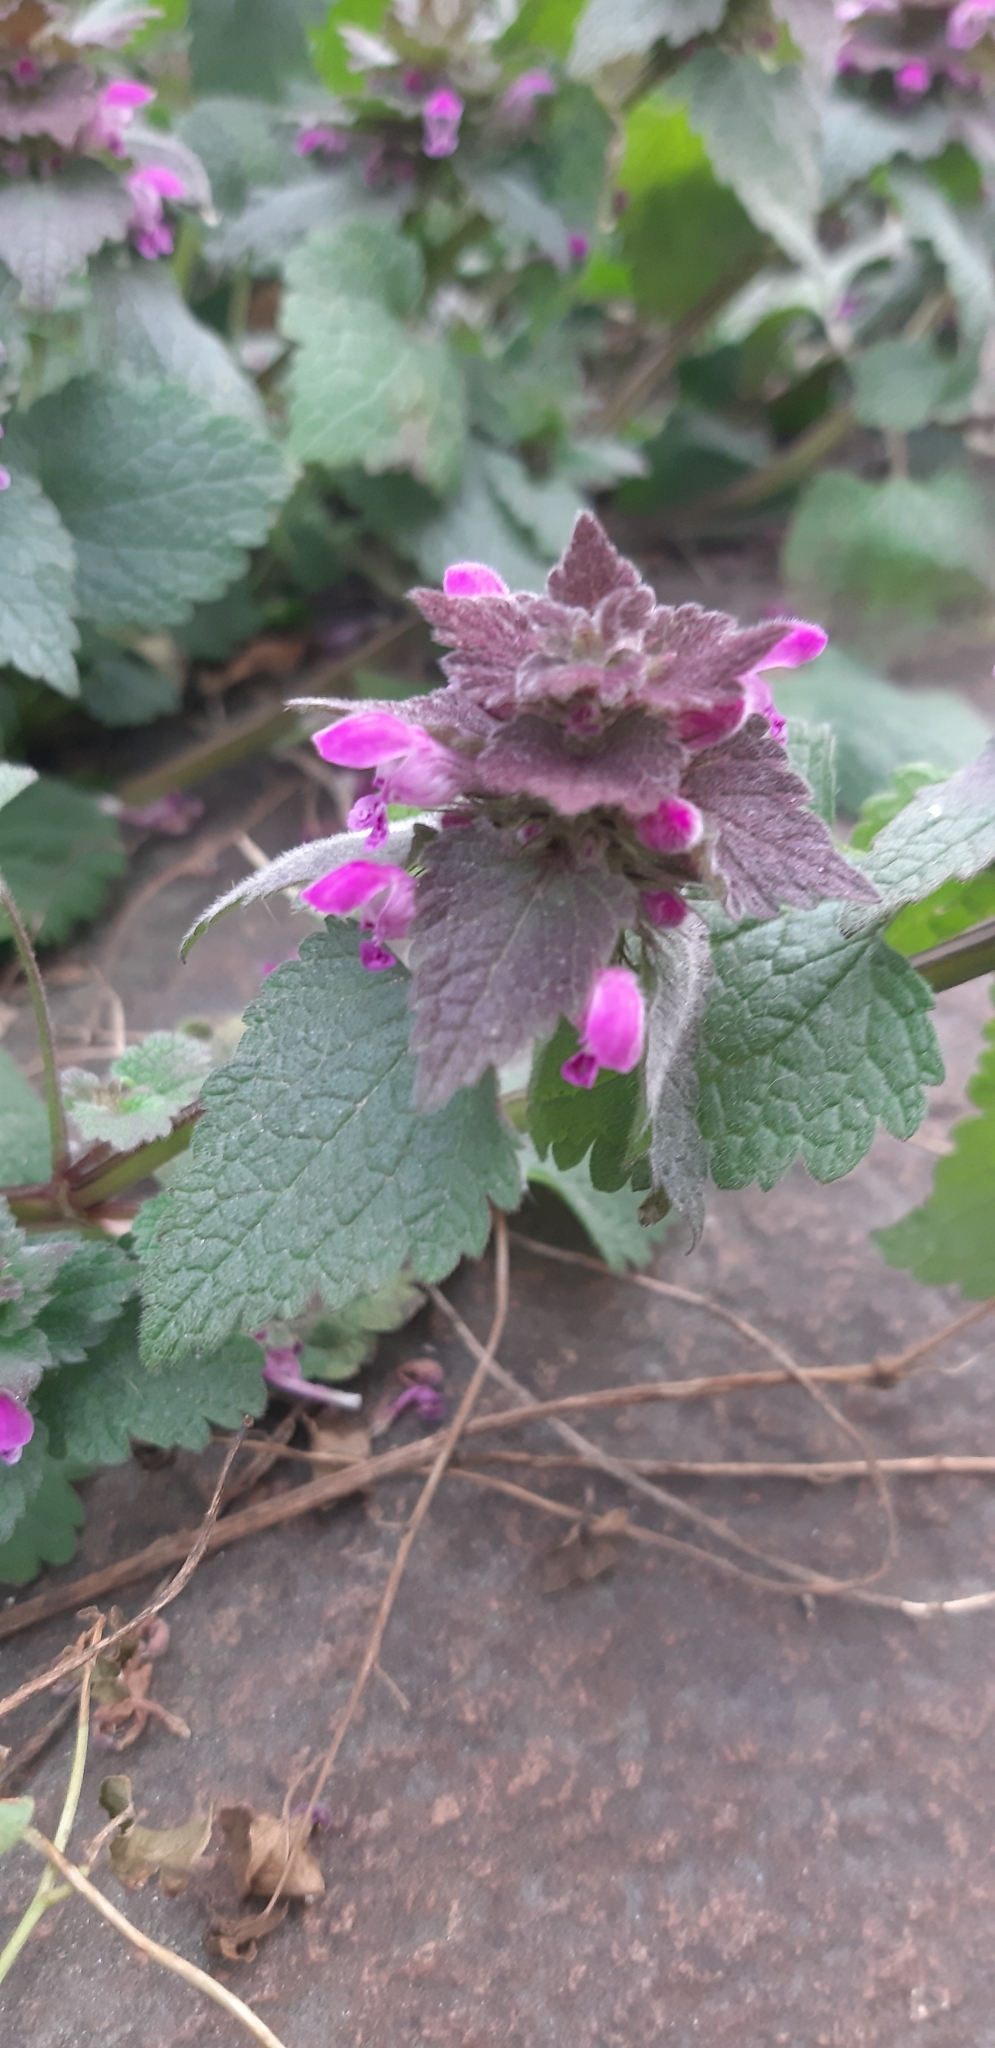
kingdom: Plantae
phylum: Tracheophyta
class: Magnoliopsida
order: Lamiales
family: Lamiaceae
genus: Lamium
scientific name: Lamium purpureum
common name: Red dead-nettle
